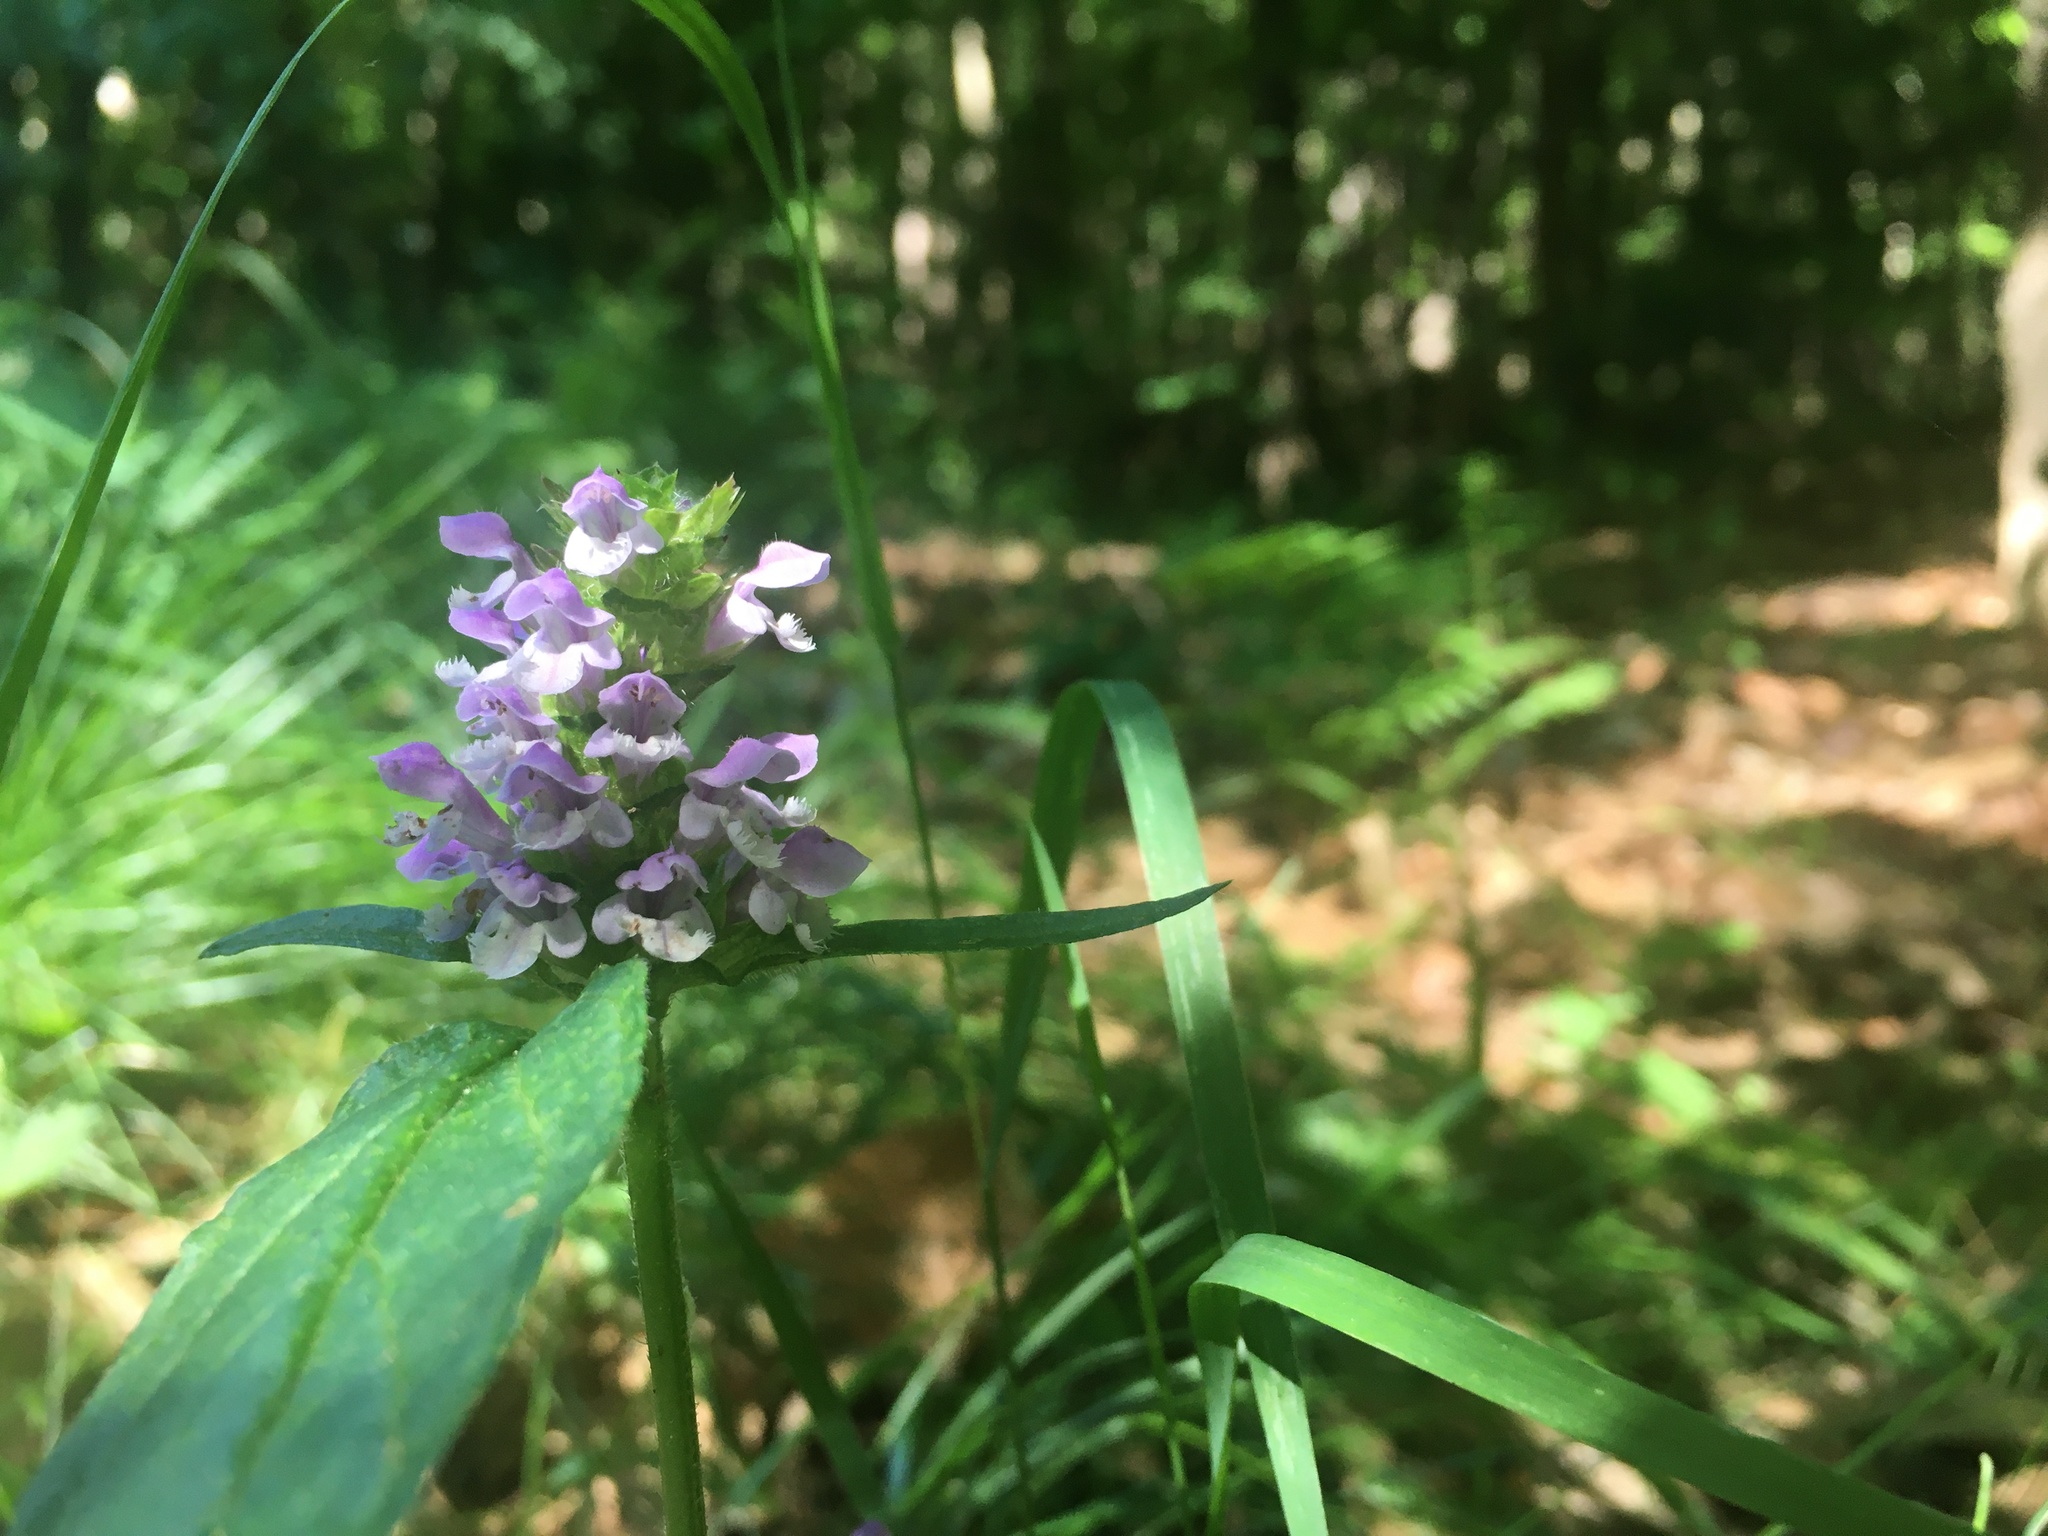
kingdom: Plantae
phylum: Tracheophyta
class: Magnoliopsida
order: Lamiales
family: Lamiaceae
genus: Prunella
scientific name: Prunella vulgaris
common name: Heal-all
